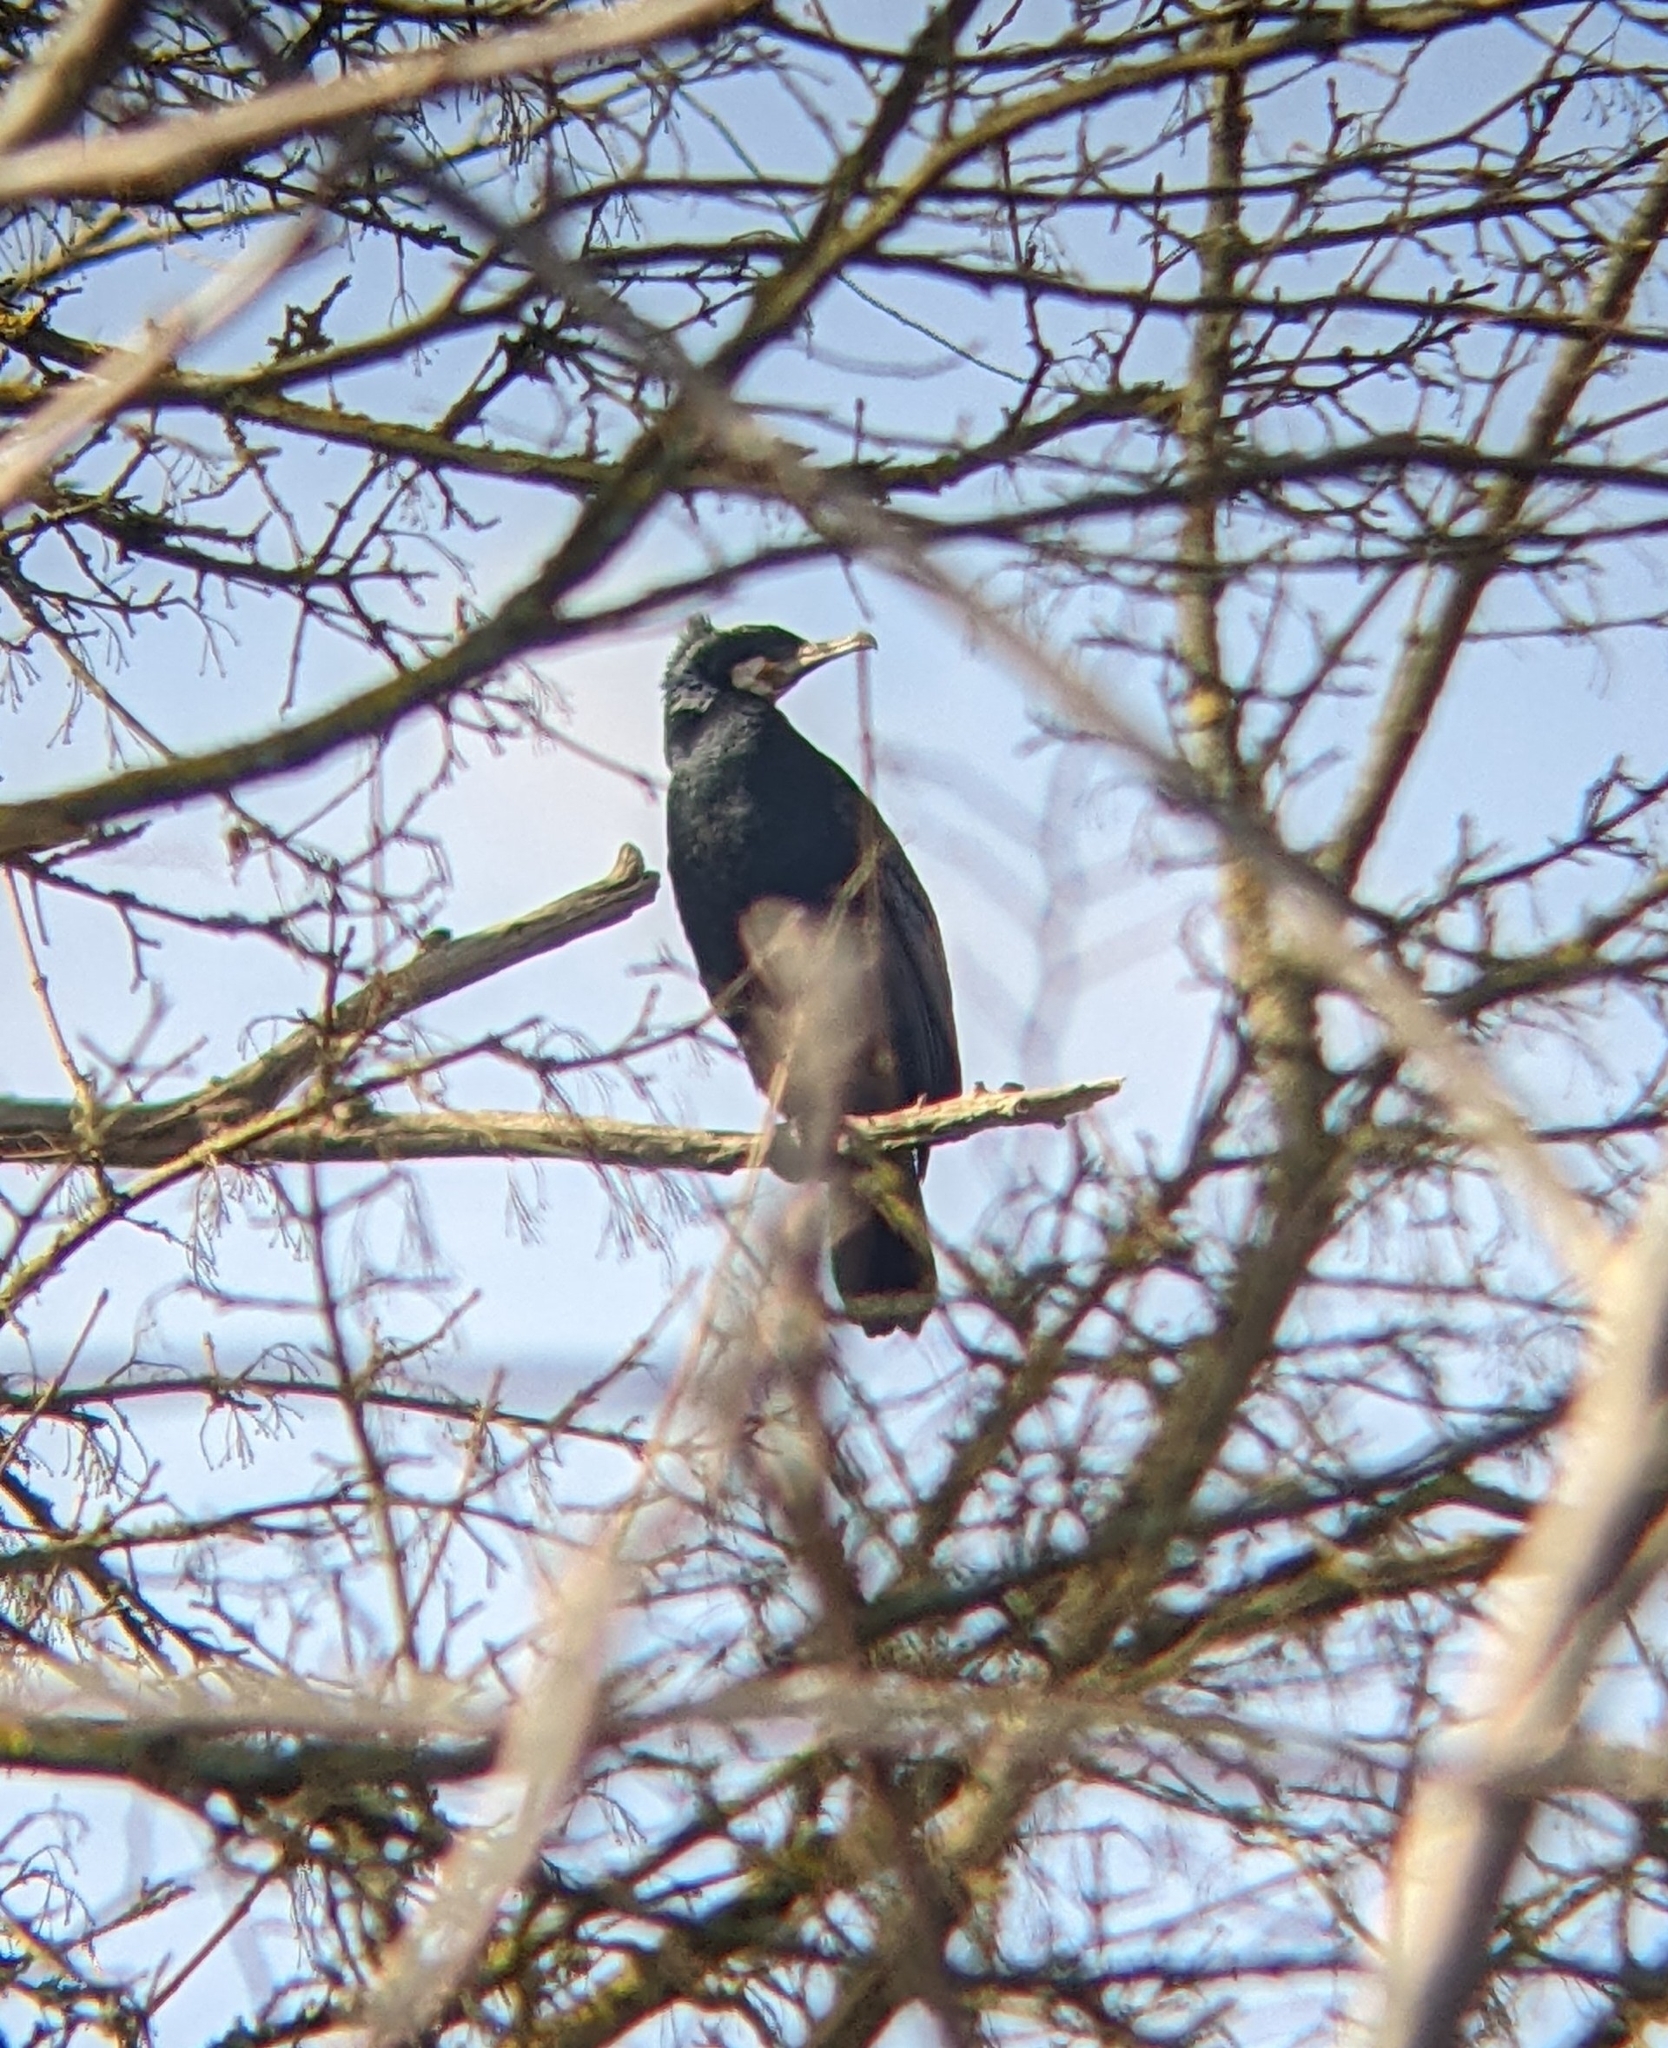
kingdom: Animalia
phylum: Chordata
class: Aves
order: Suliformes
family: Phalacrocoracidae
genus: Phalacrocorax
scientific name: Phalacrocorax carbo
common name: Great cormorant
